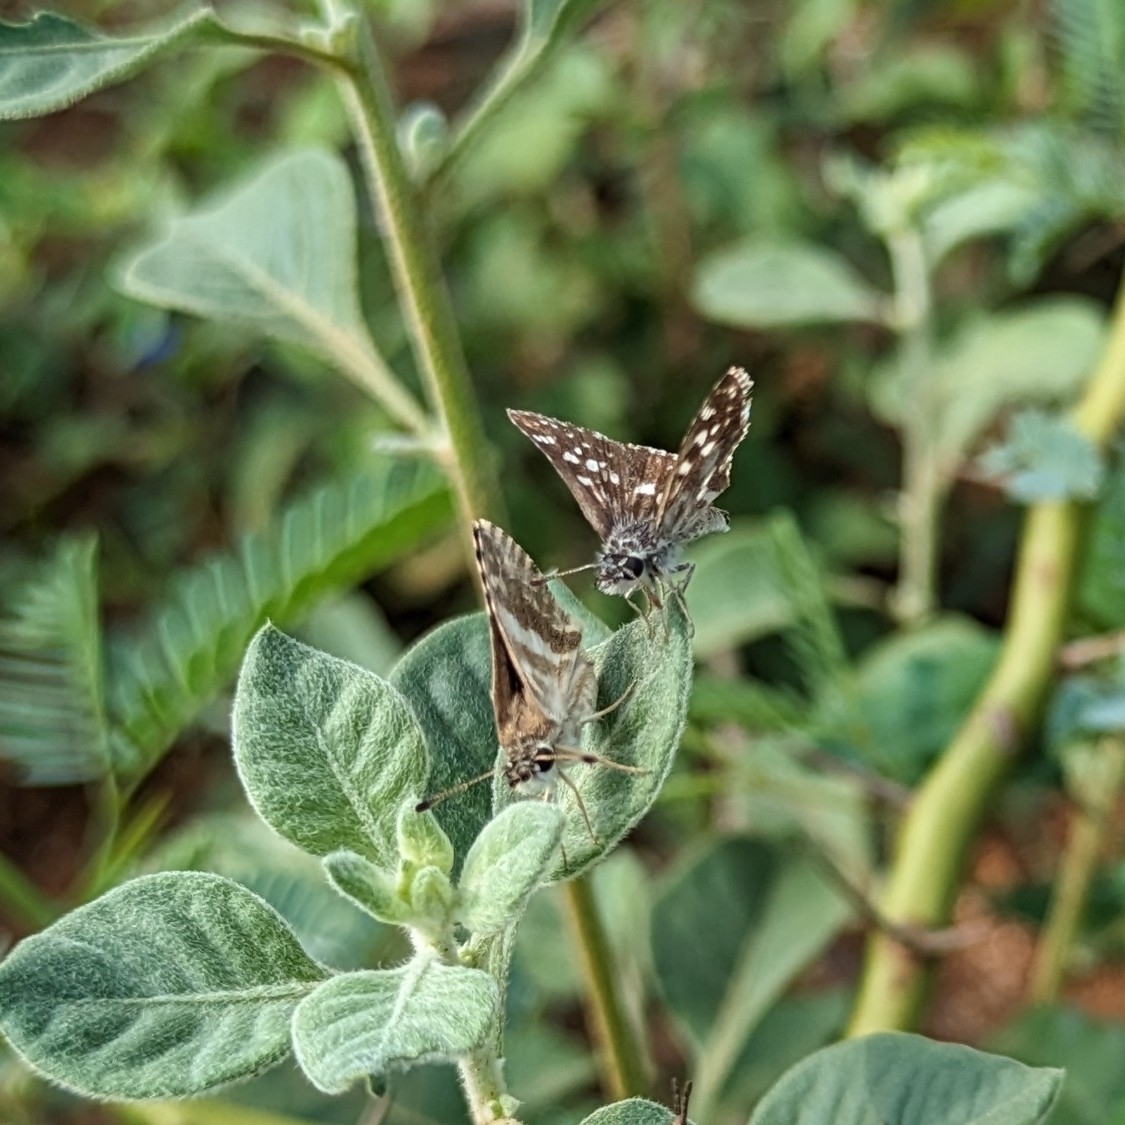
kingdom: Animalia
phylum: Arthropoda
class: Insecta
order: Lepidoptera
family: Hesperiidae
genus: Spialia
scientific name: Spialia galba
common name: Indian skipper
